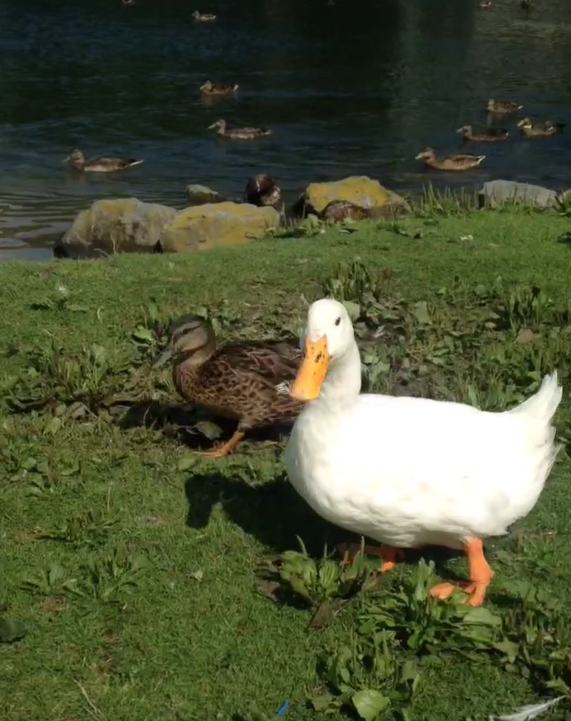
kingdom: Animalia
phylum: Chordata
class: Aves
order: Anseriformes
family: Anatidae
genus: Anas
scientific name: Anas platyrhynchos
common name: Mallard
